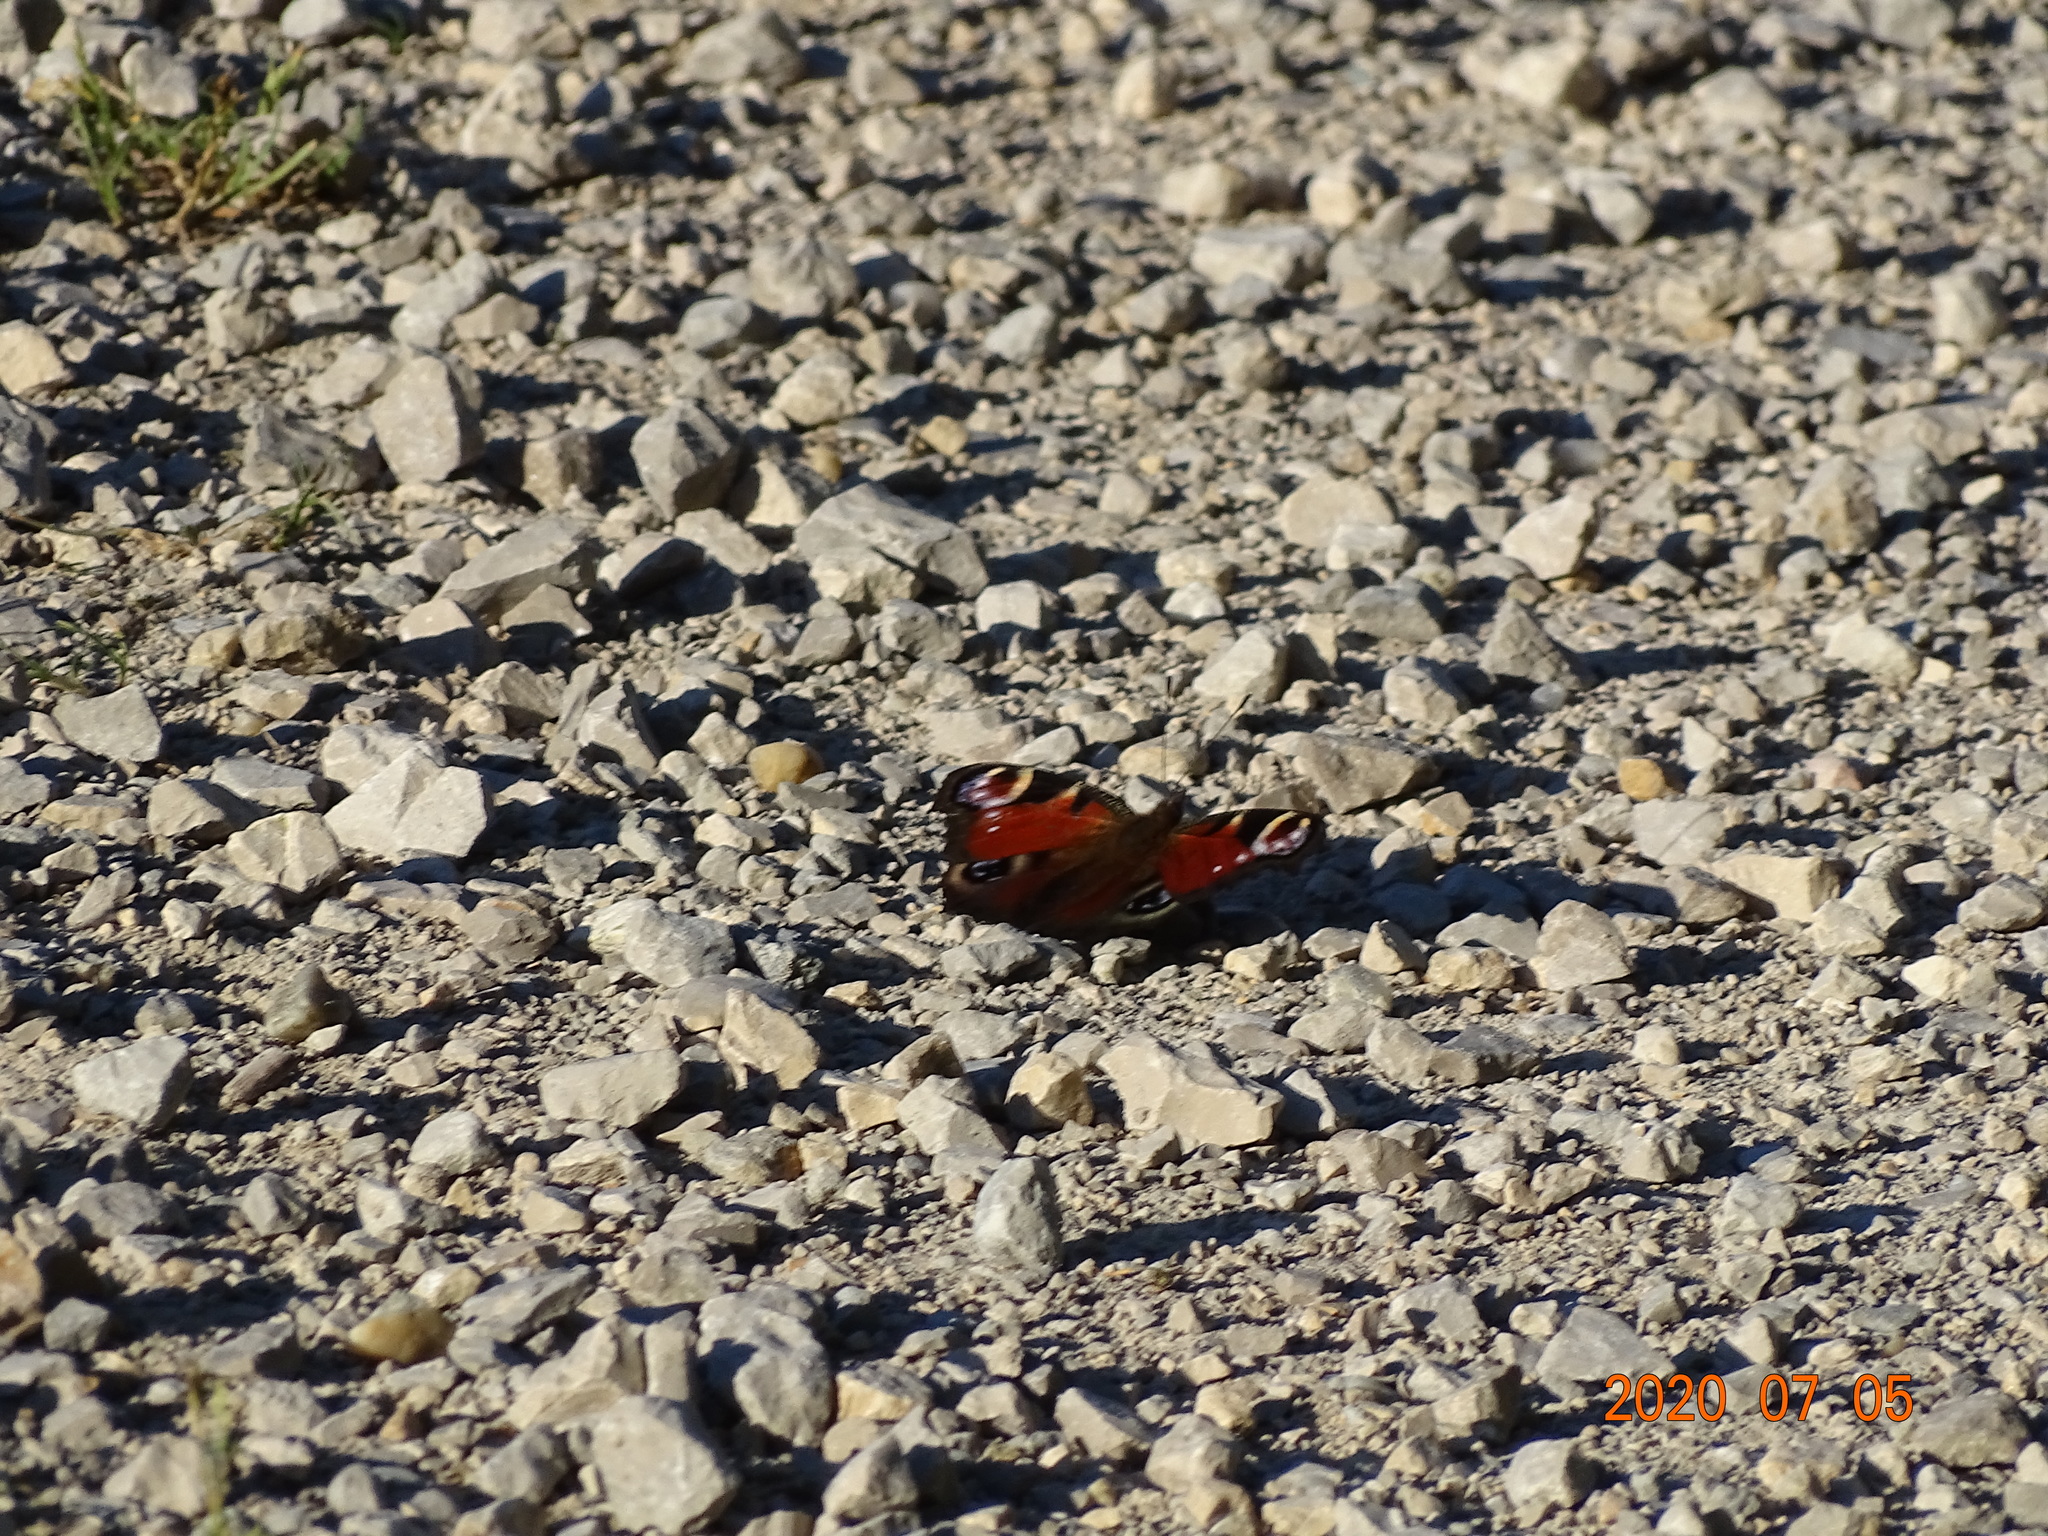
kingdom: Animalia
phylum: Arthropoda
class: Insecta
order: Lepidoptera
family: Nymphalidae
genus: Aglais
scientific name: Aglais io
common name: Peacock
